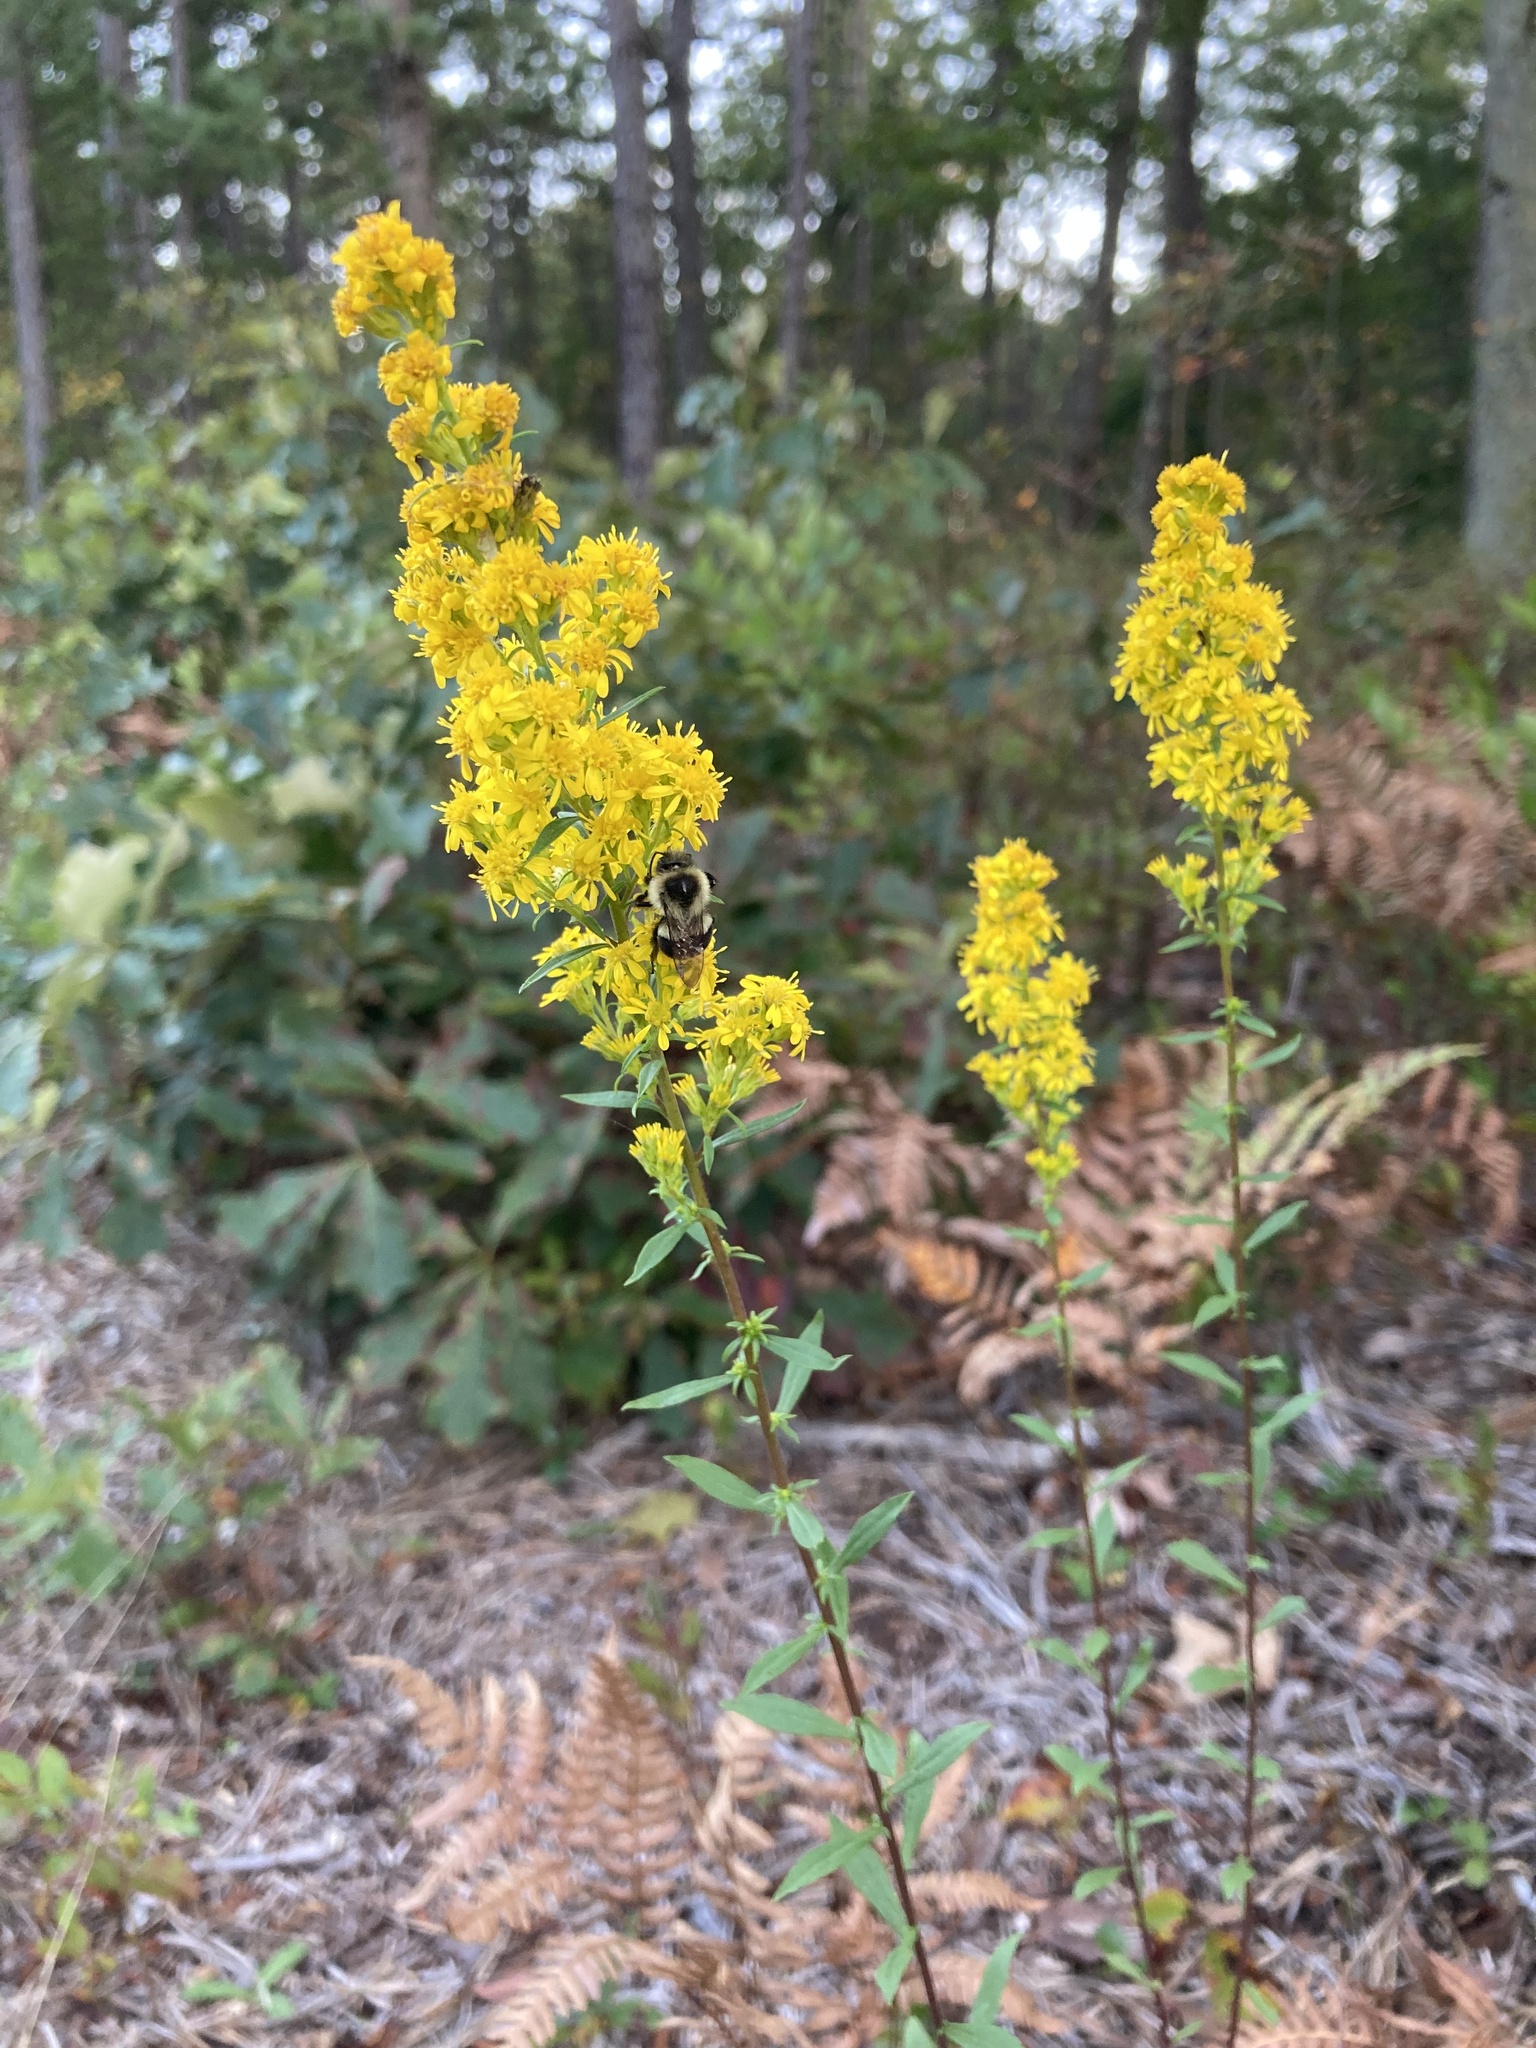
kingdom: Animalia
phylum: Arthropoda
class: Insecta
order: Hymenoptera
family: Apidae
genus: Bombus
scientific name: Bombus impatiens
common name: Common eastern bumble bee
